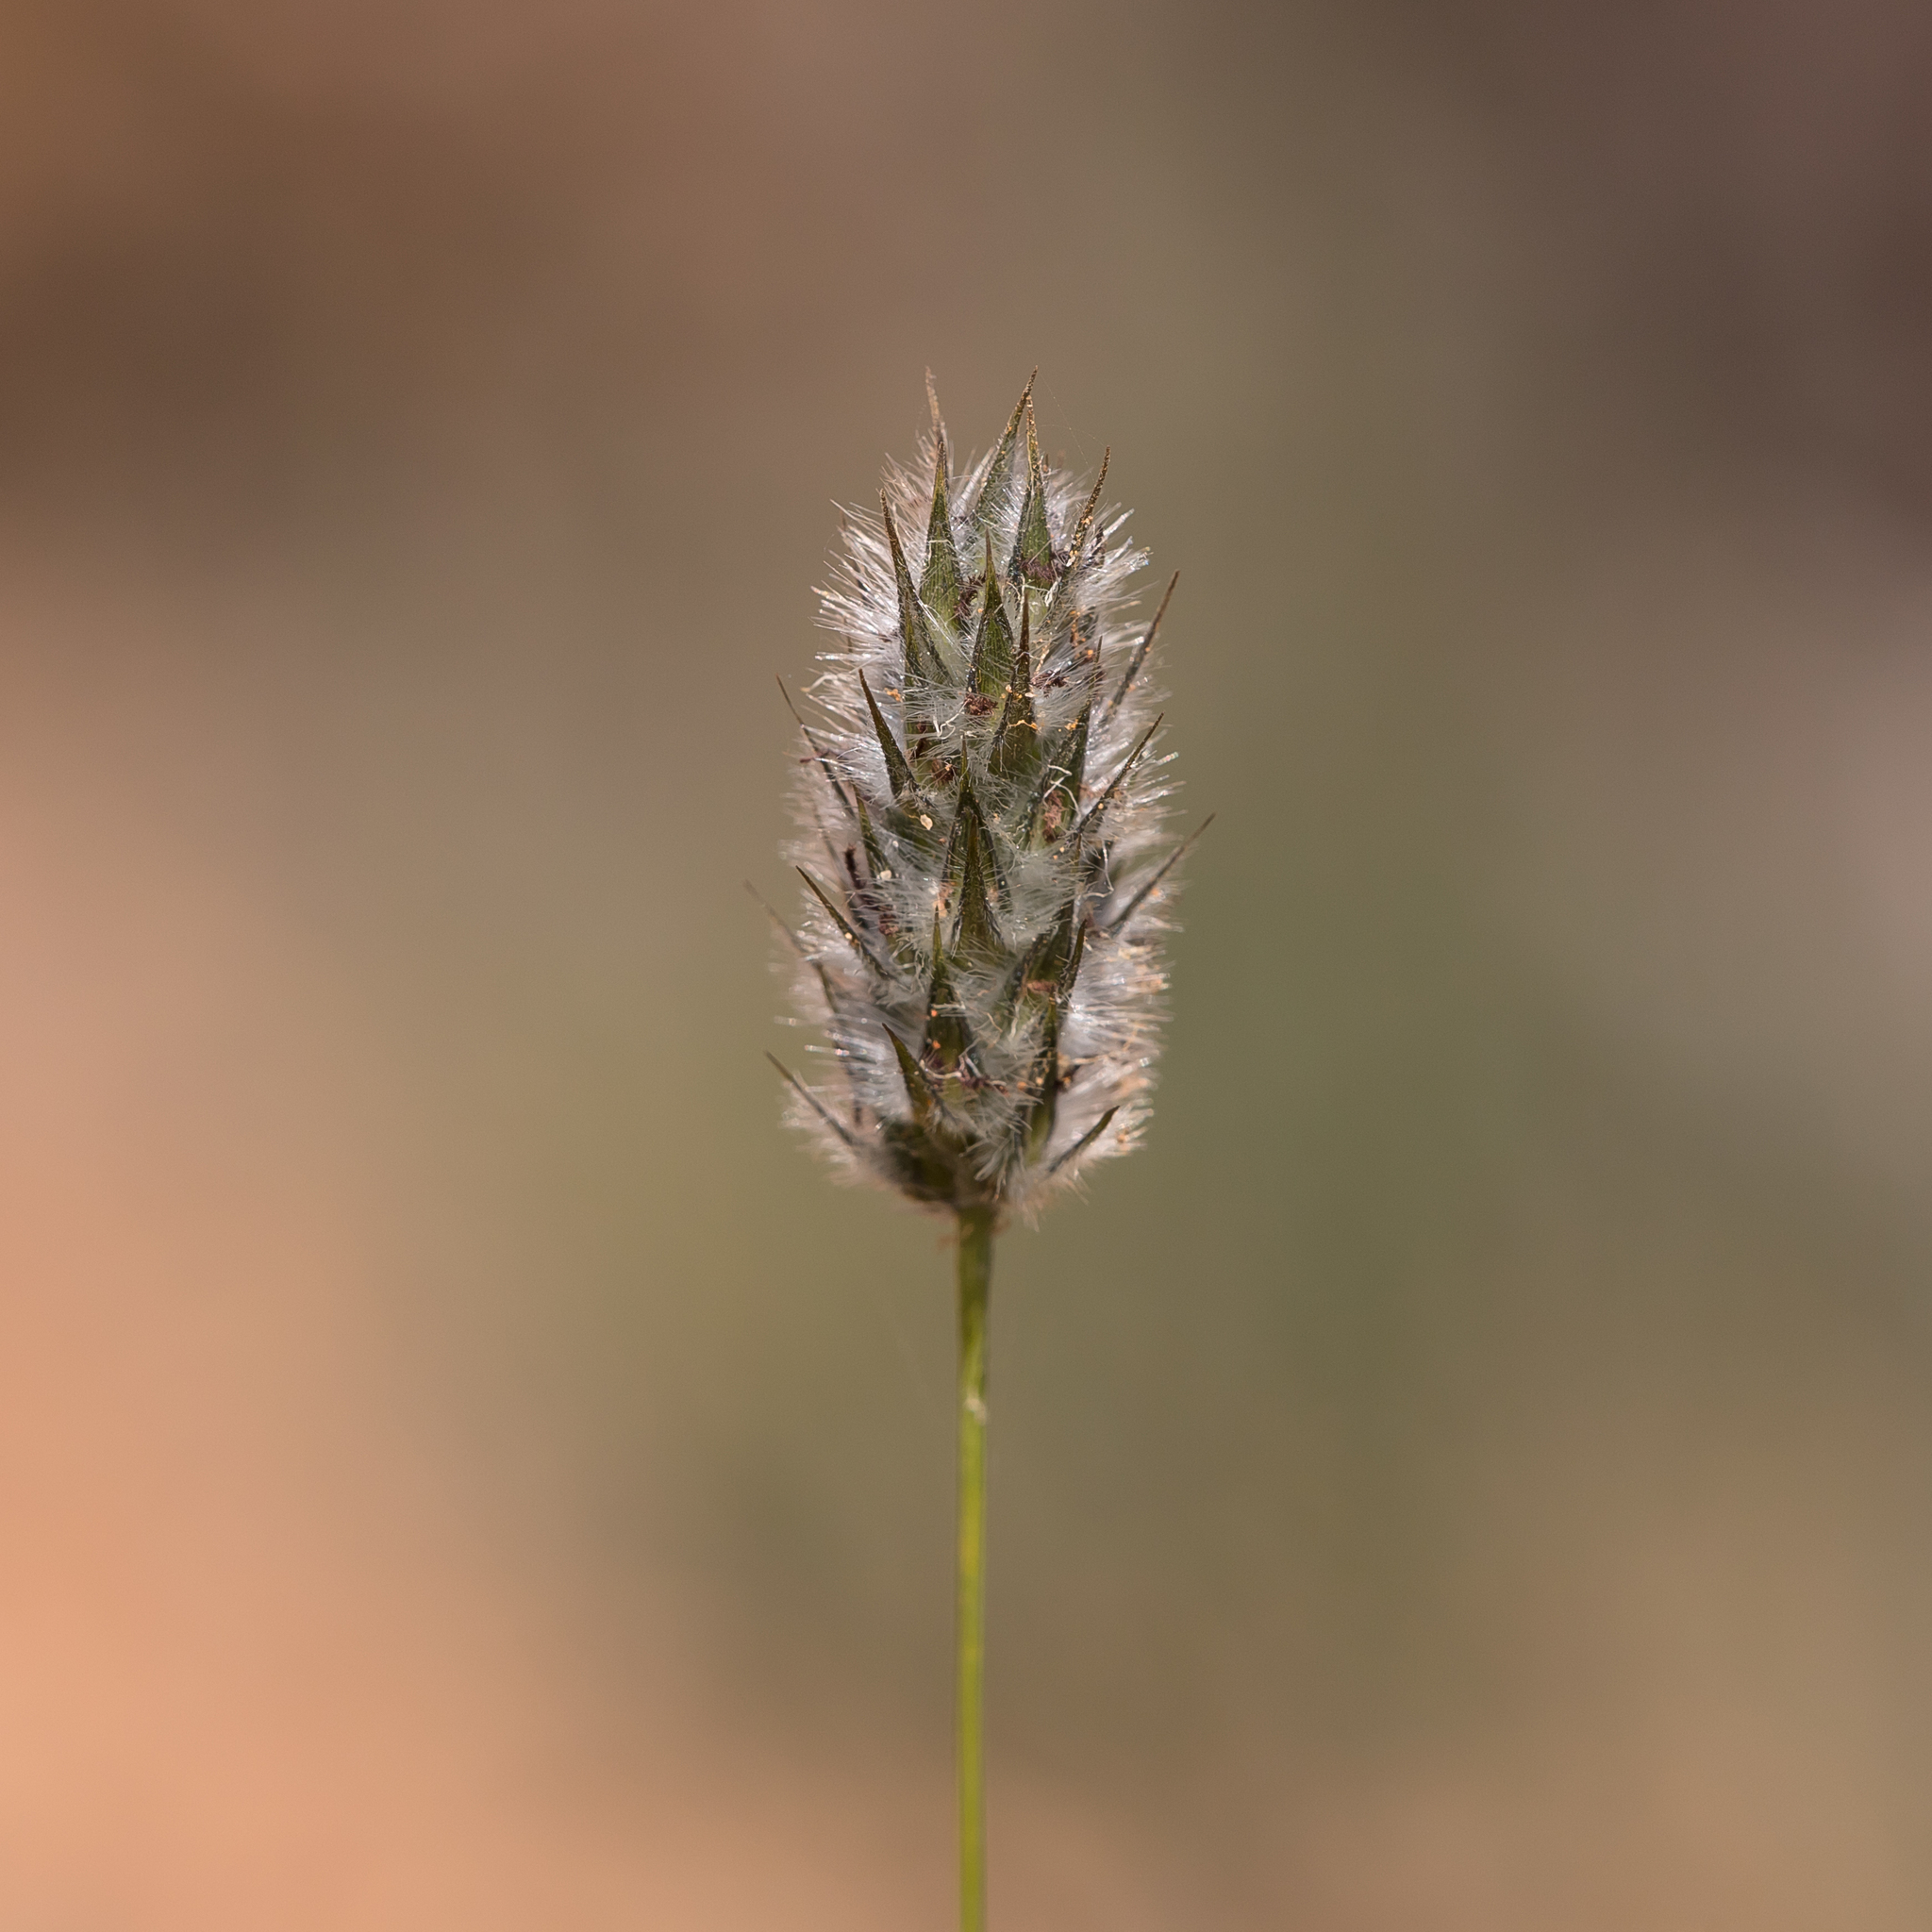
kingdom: Plantae
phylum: Tracheophyta
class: Liliopsida
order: Poales
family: Poaceae
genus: Neurachne
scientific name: Neurachne alopecuroidea
